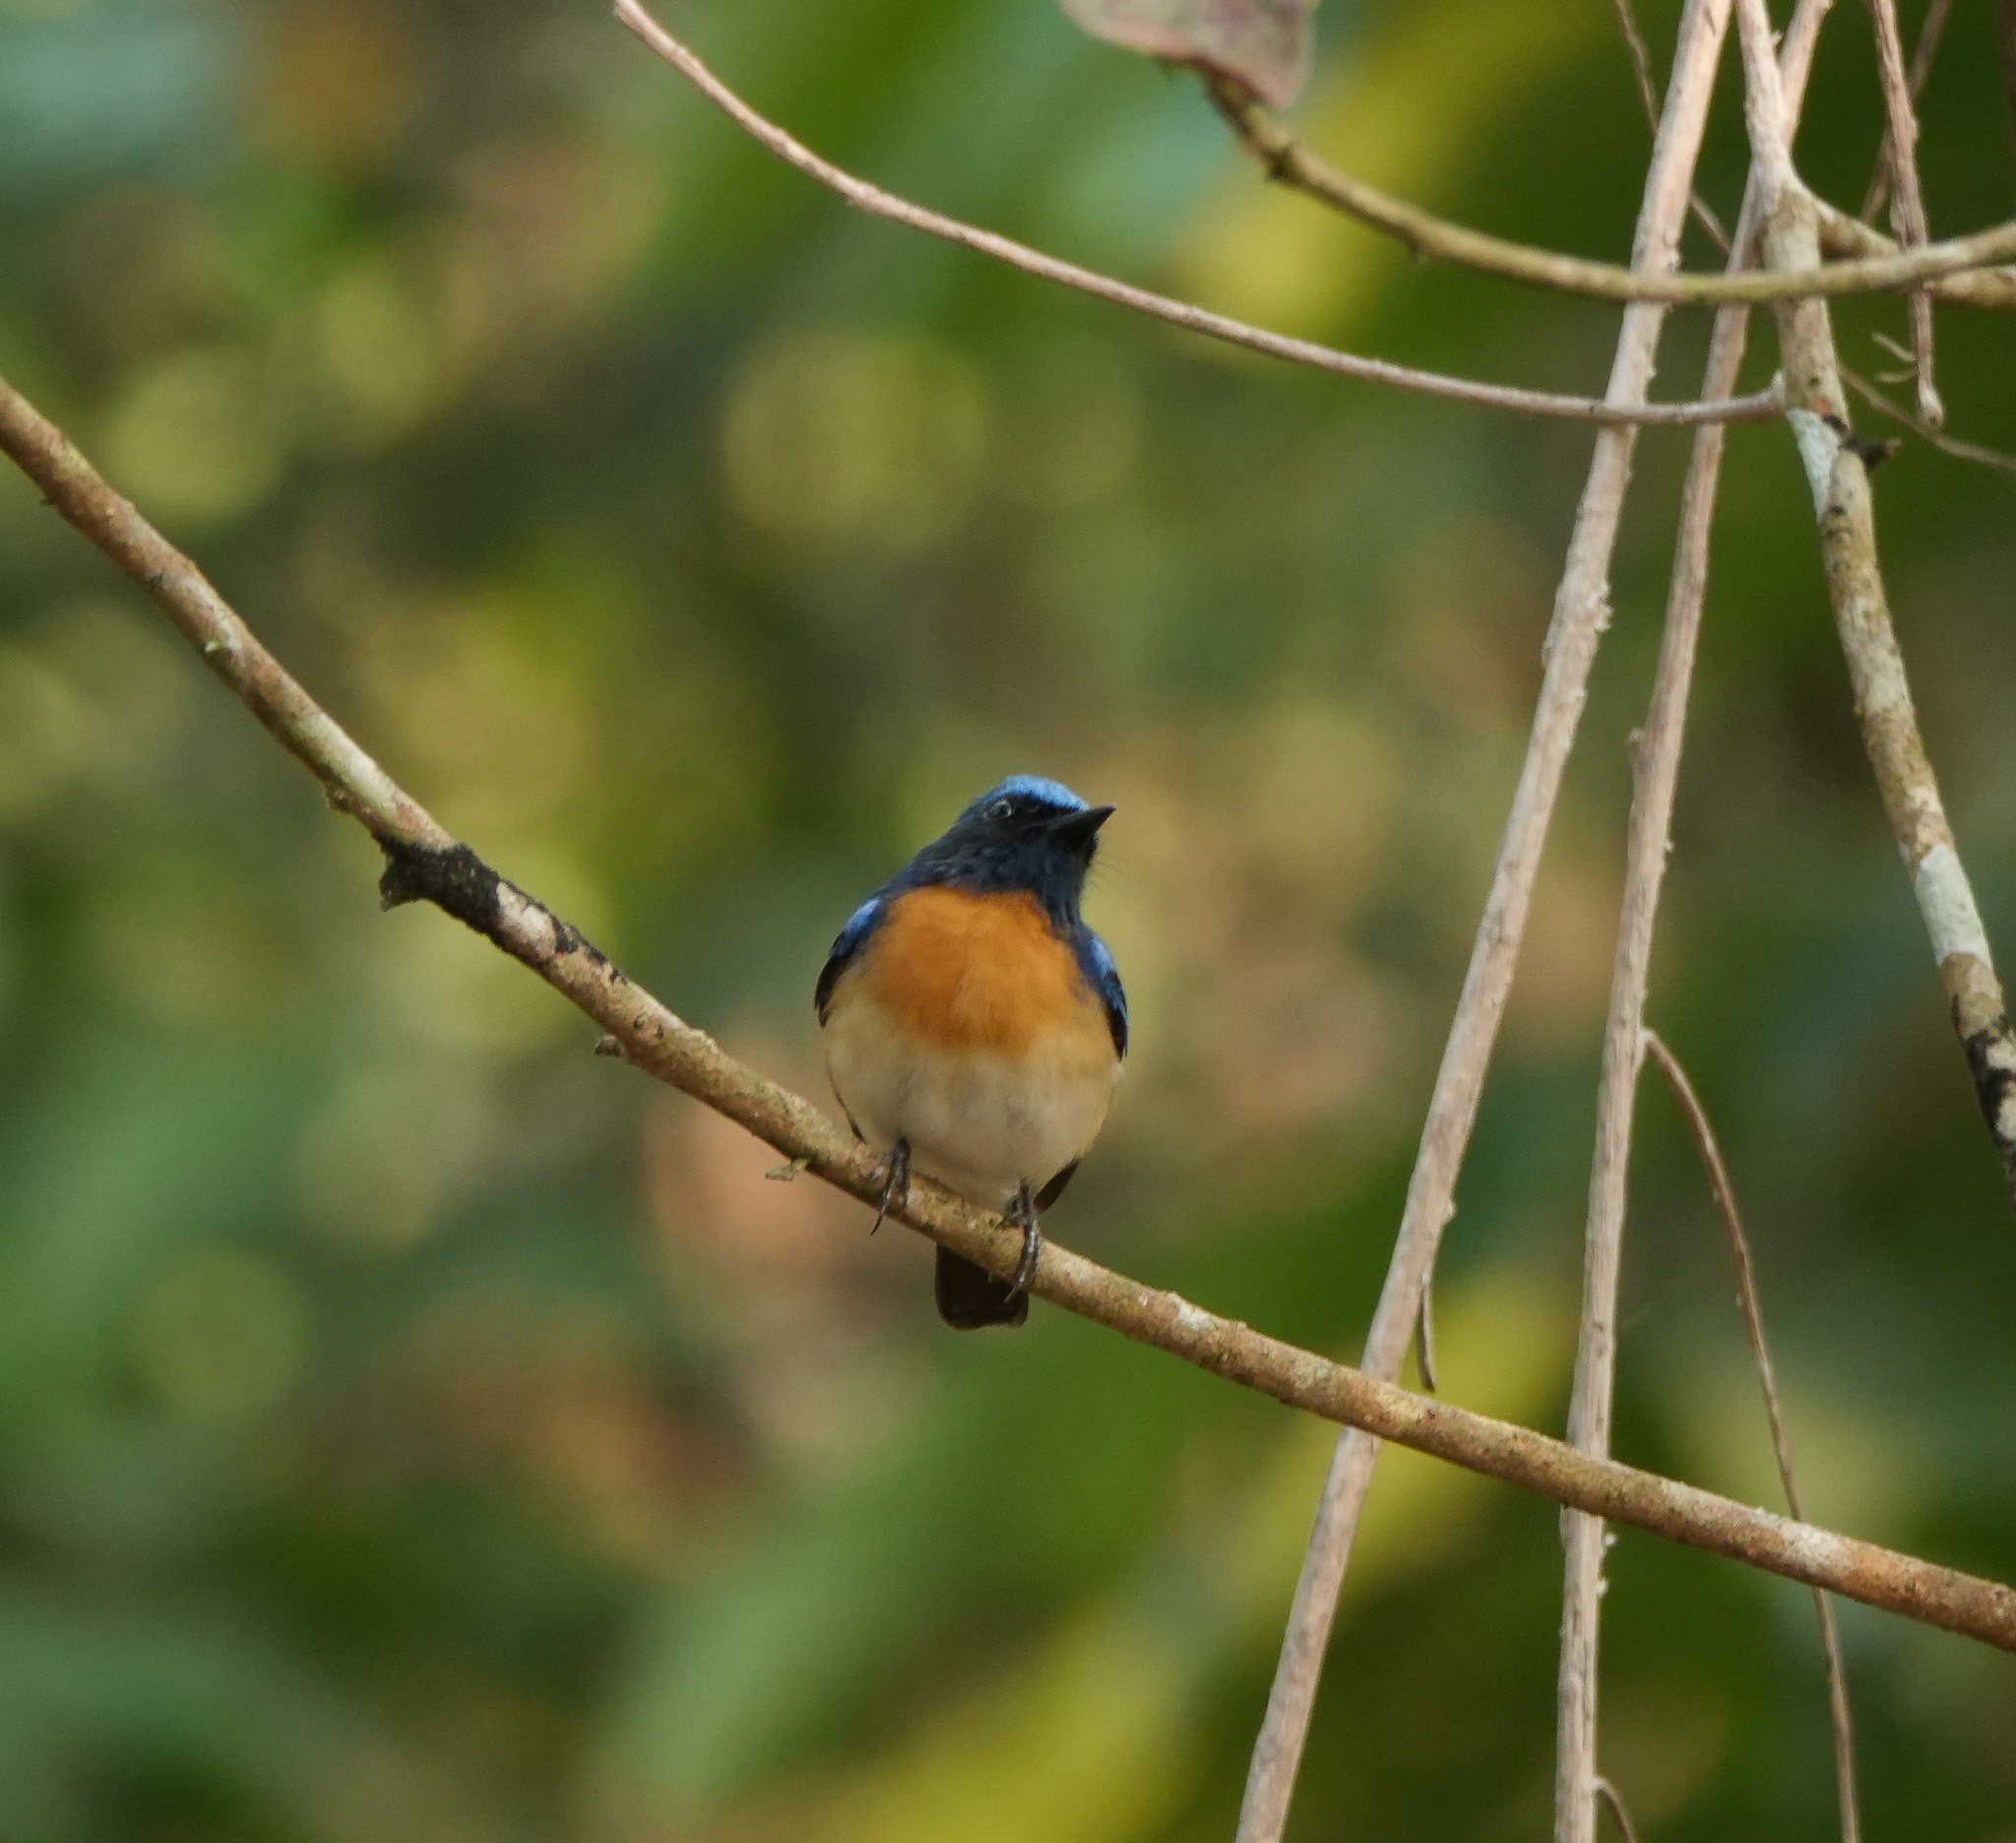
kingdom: Animalia
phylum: Chordata
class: Aves
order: Passeriformes
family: Muscicapidae
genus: Cyornis
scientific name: Cyornis rubeculoides
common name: Blue-throated blue flycatcher
